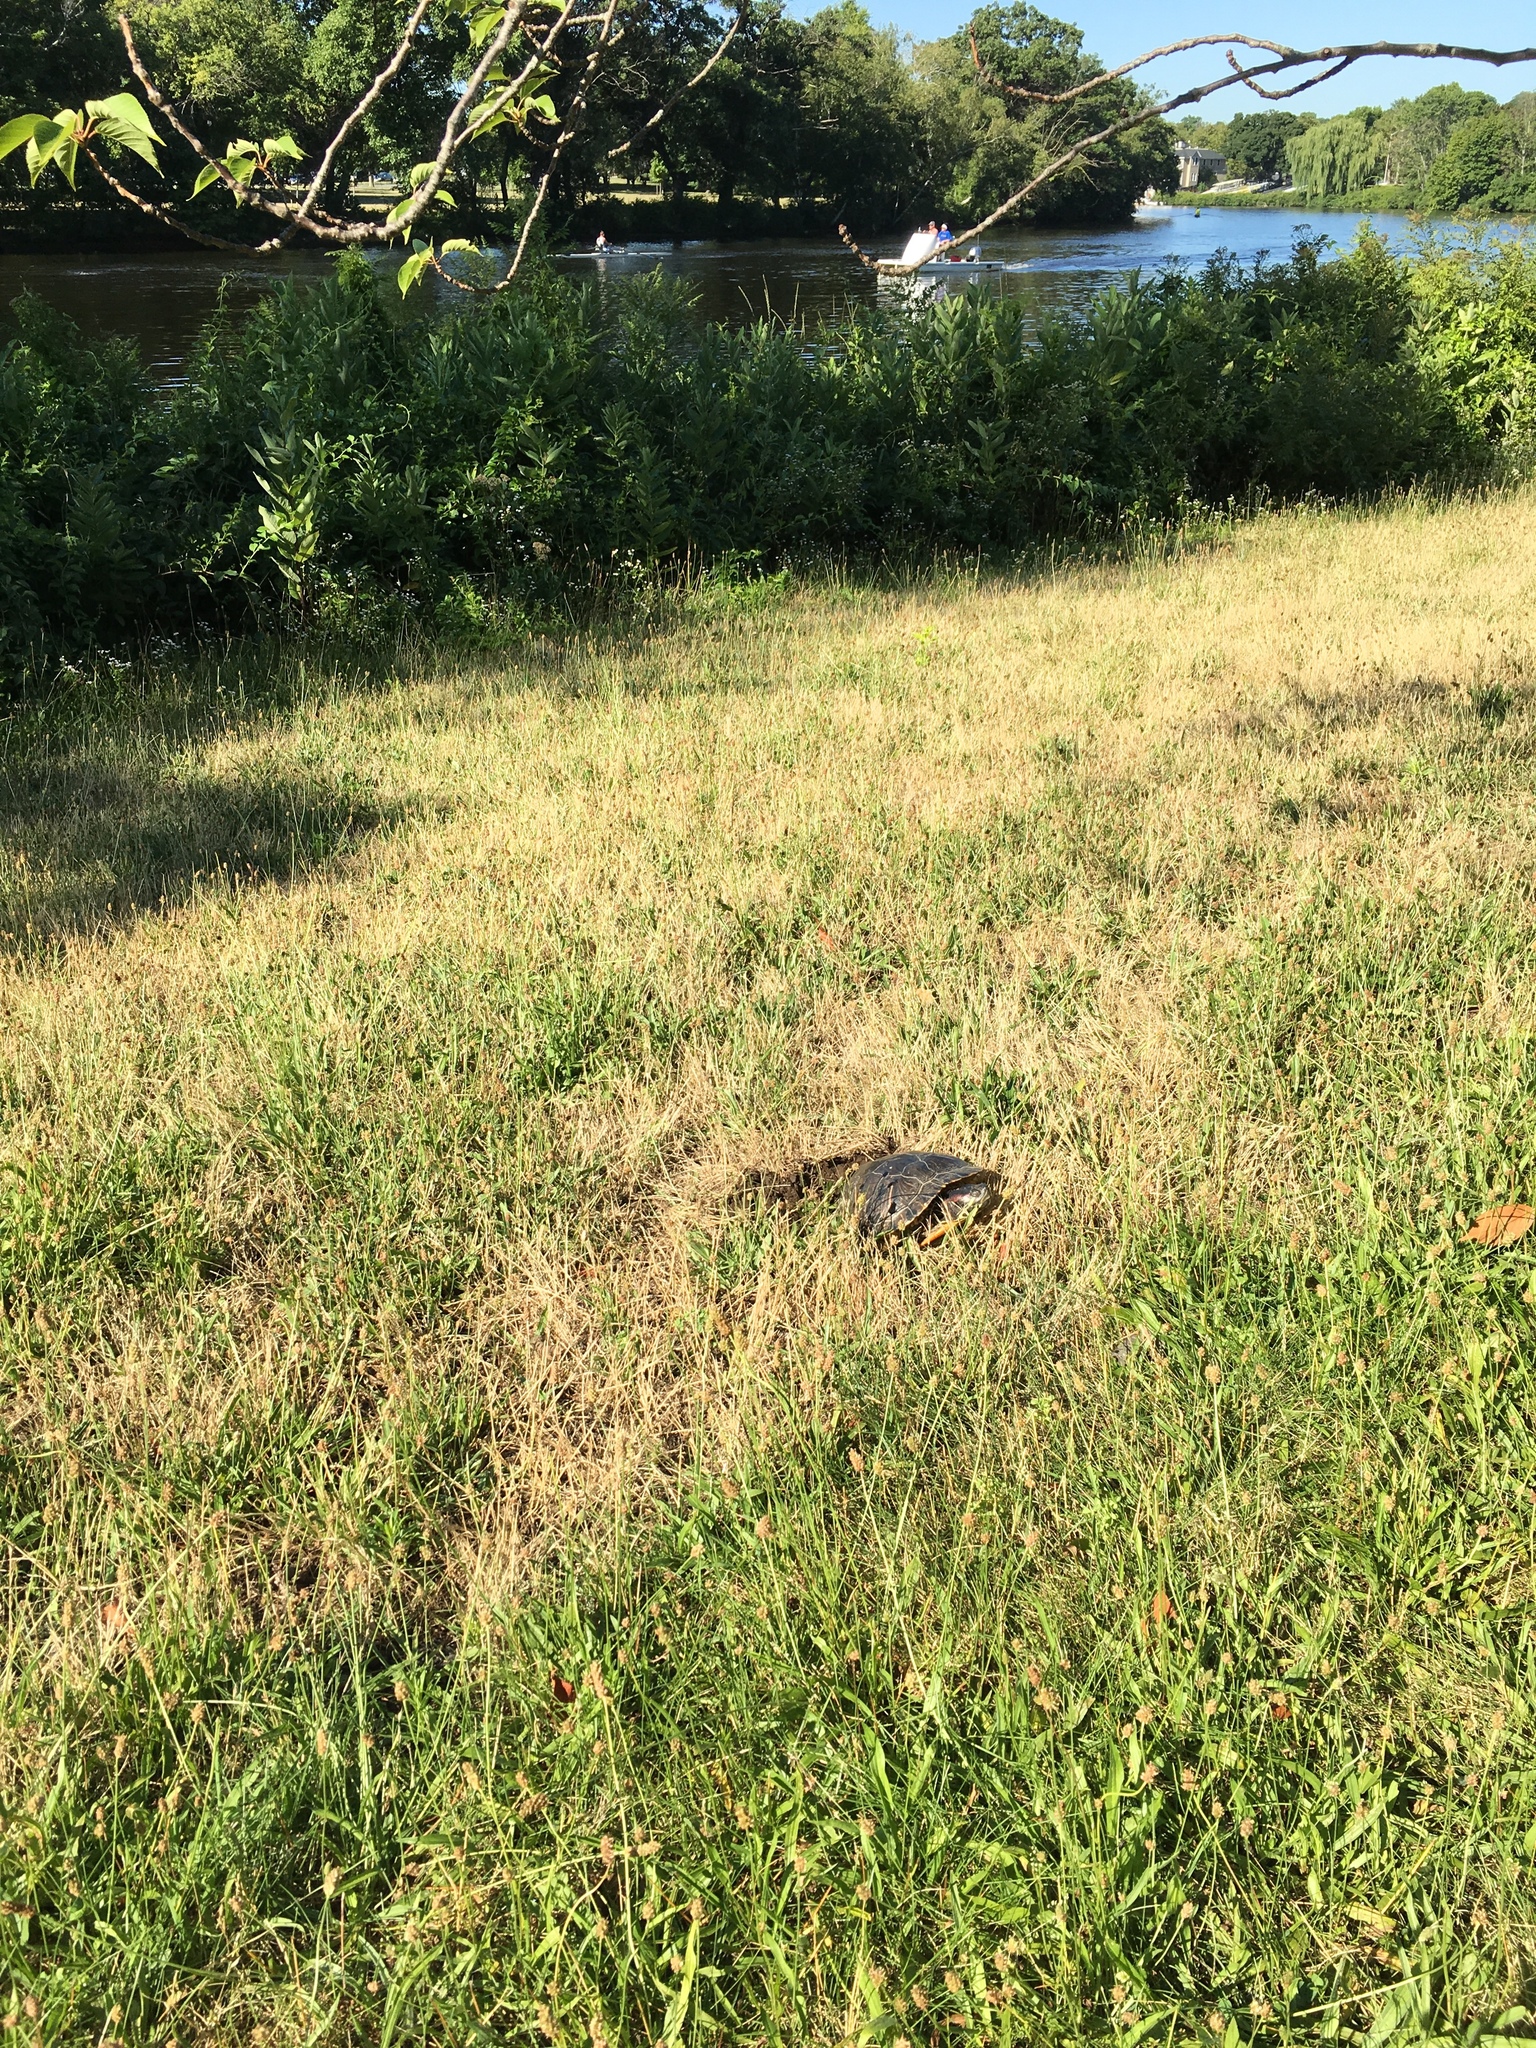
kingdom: Animalia
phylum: Chordata
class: Testudines
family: Emydidae
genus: Trachemys
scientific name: Trachemys scripta
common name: Slider
